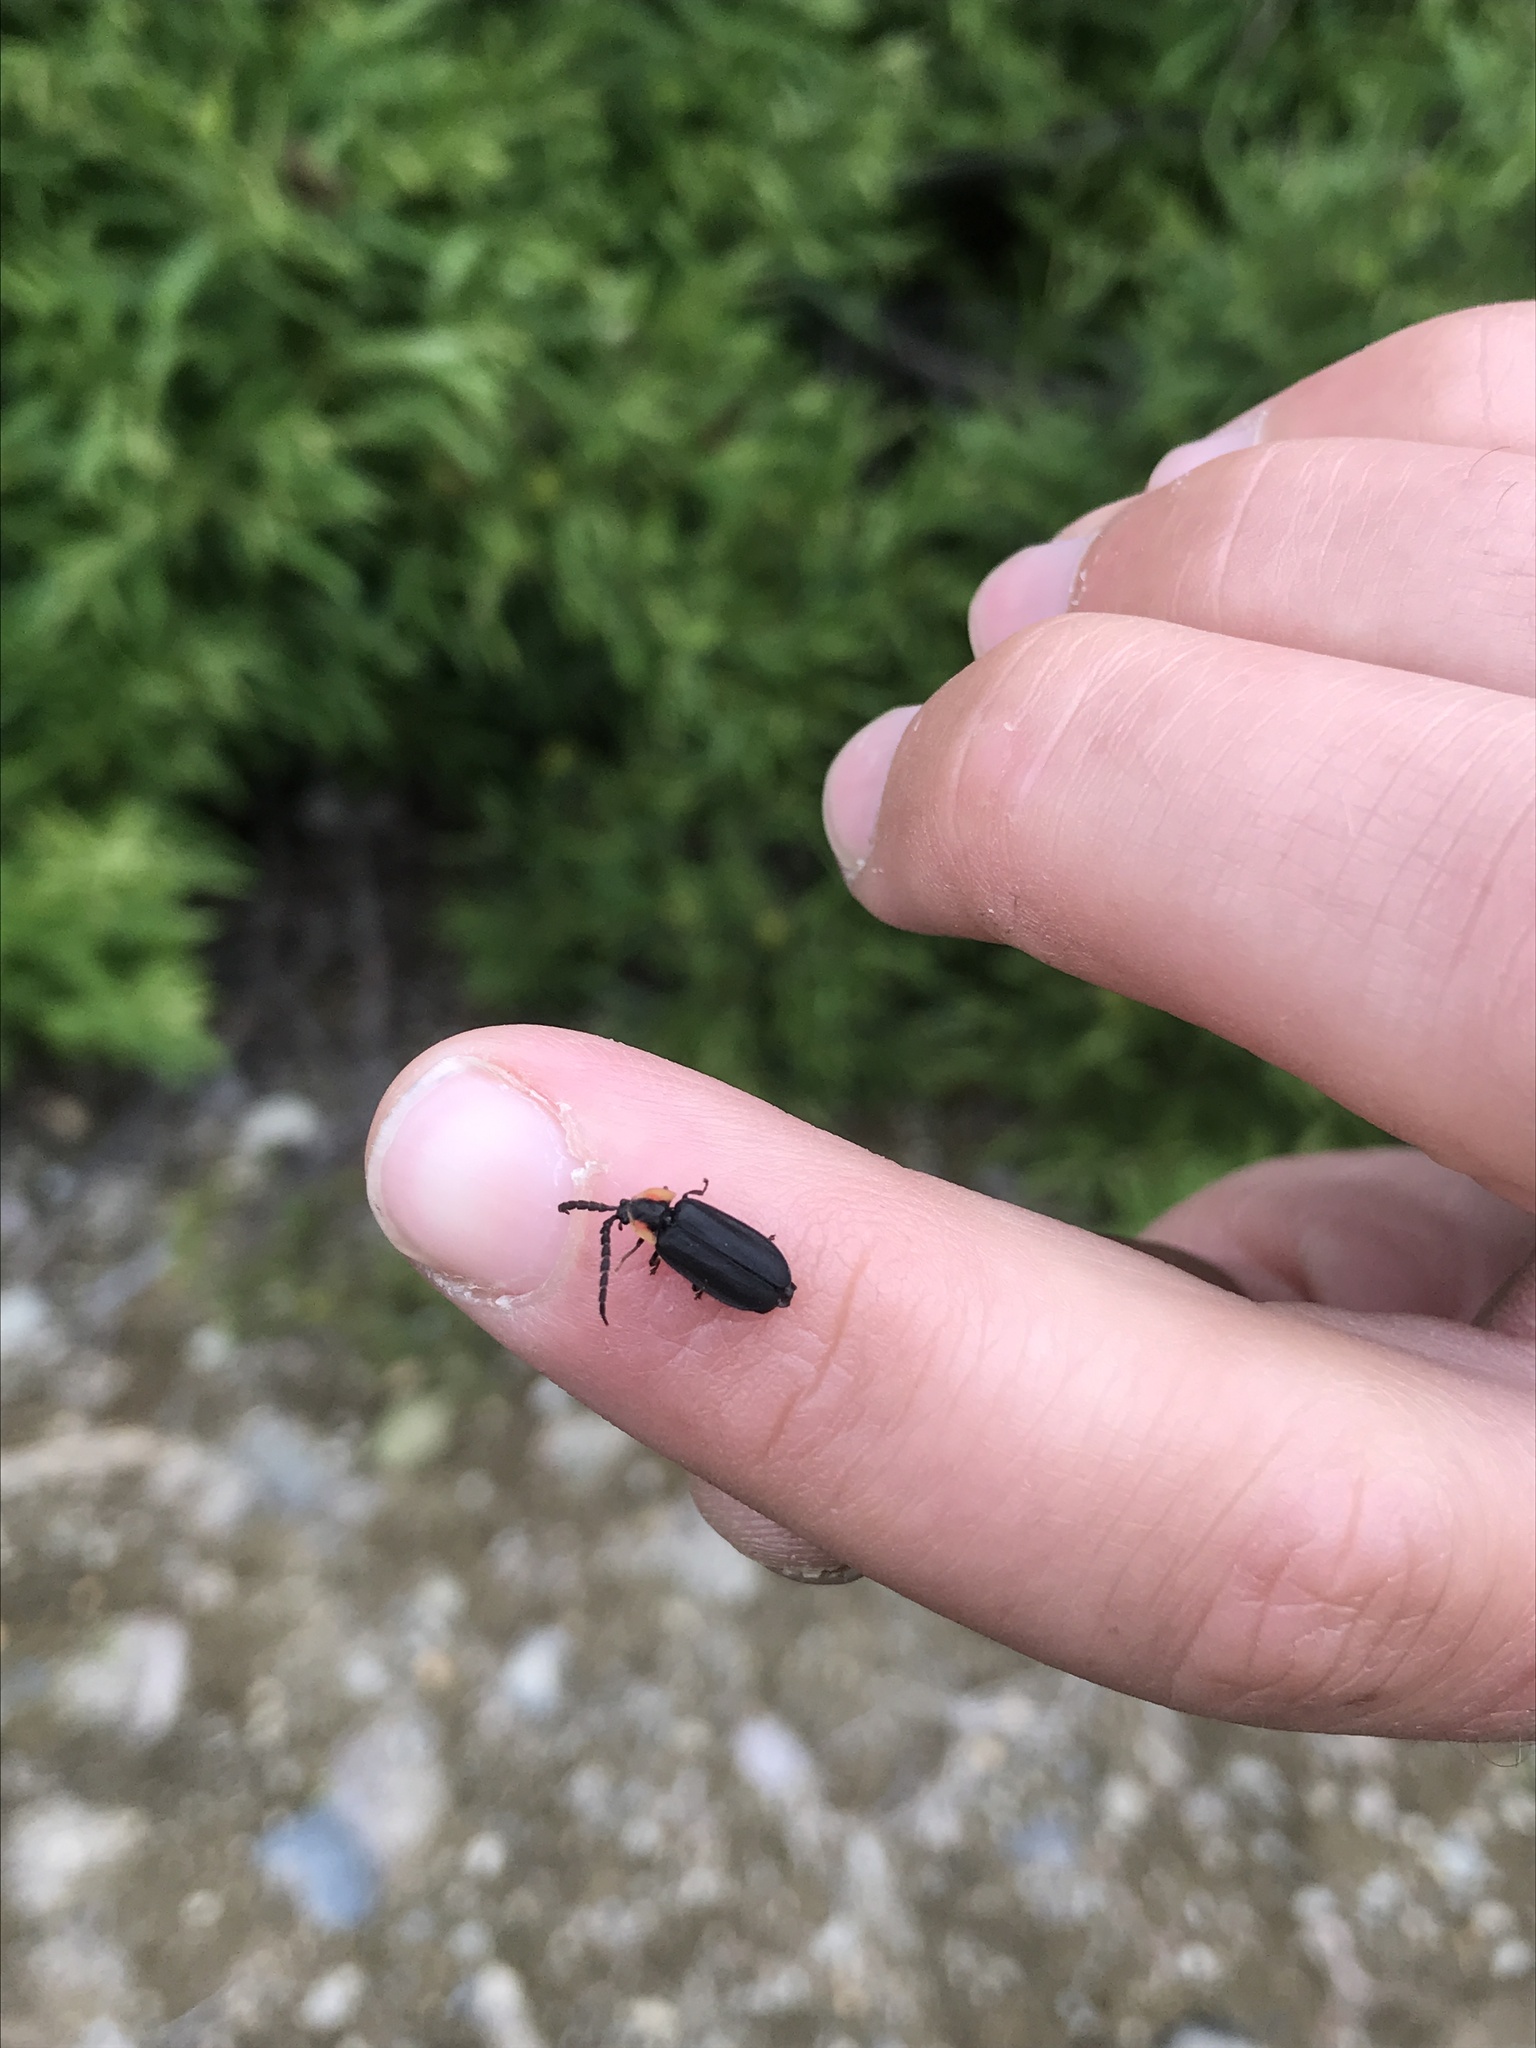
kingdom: Animalia
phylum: Arthropoda
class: Insecta
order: Coleoptera
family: Lampyridae
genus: Lucidota
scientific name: Lucidota atra
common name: Black firefly
